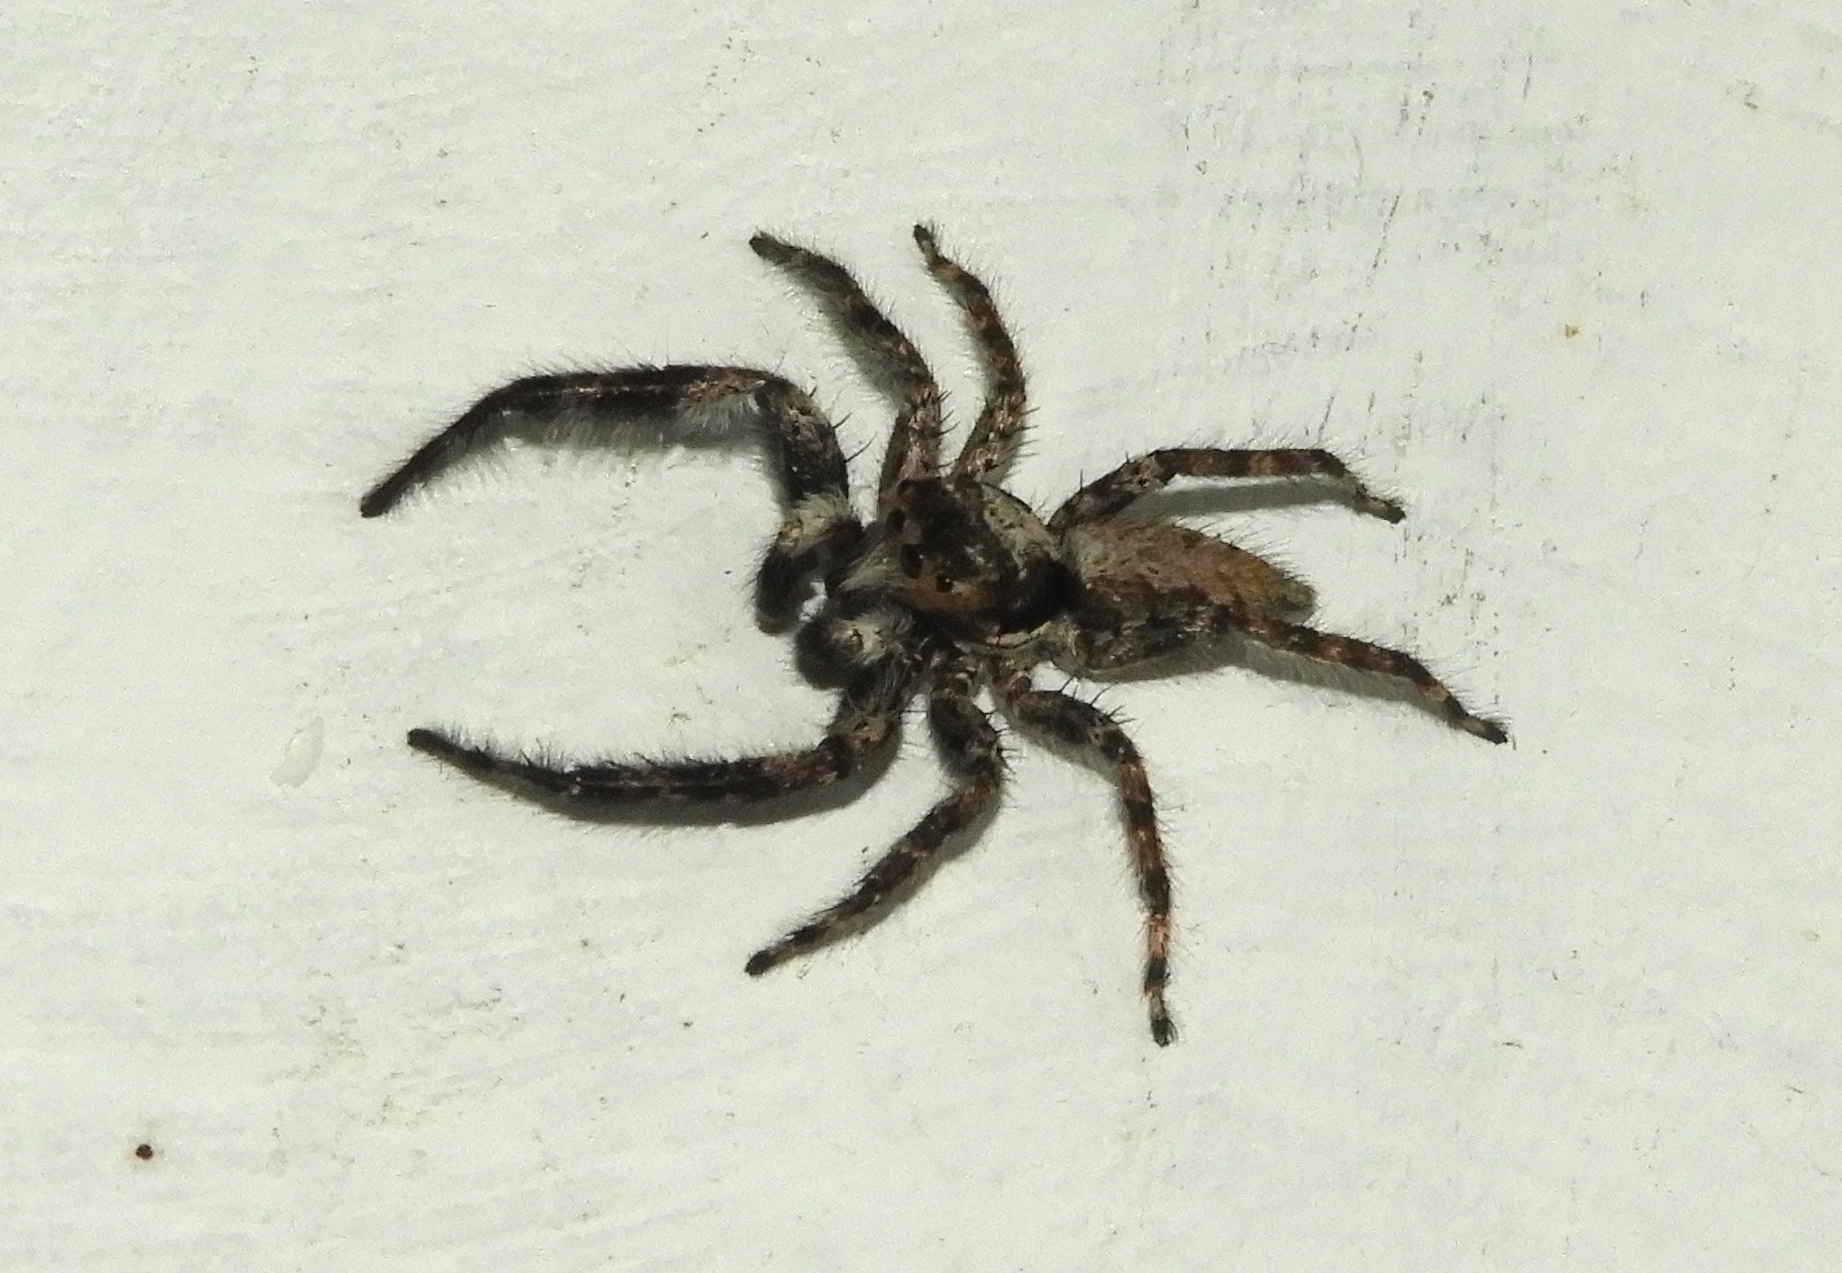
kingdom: Animalia
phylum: Arthropoda
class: Arachnida
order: Araneae
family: Salticidae
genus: Balmaceda
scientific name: Balmaceda
